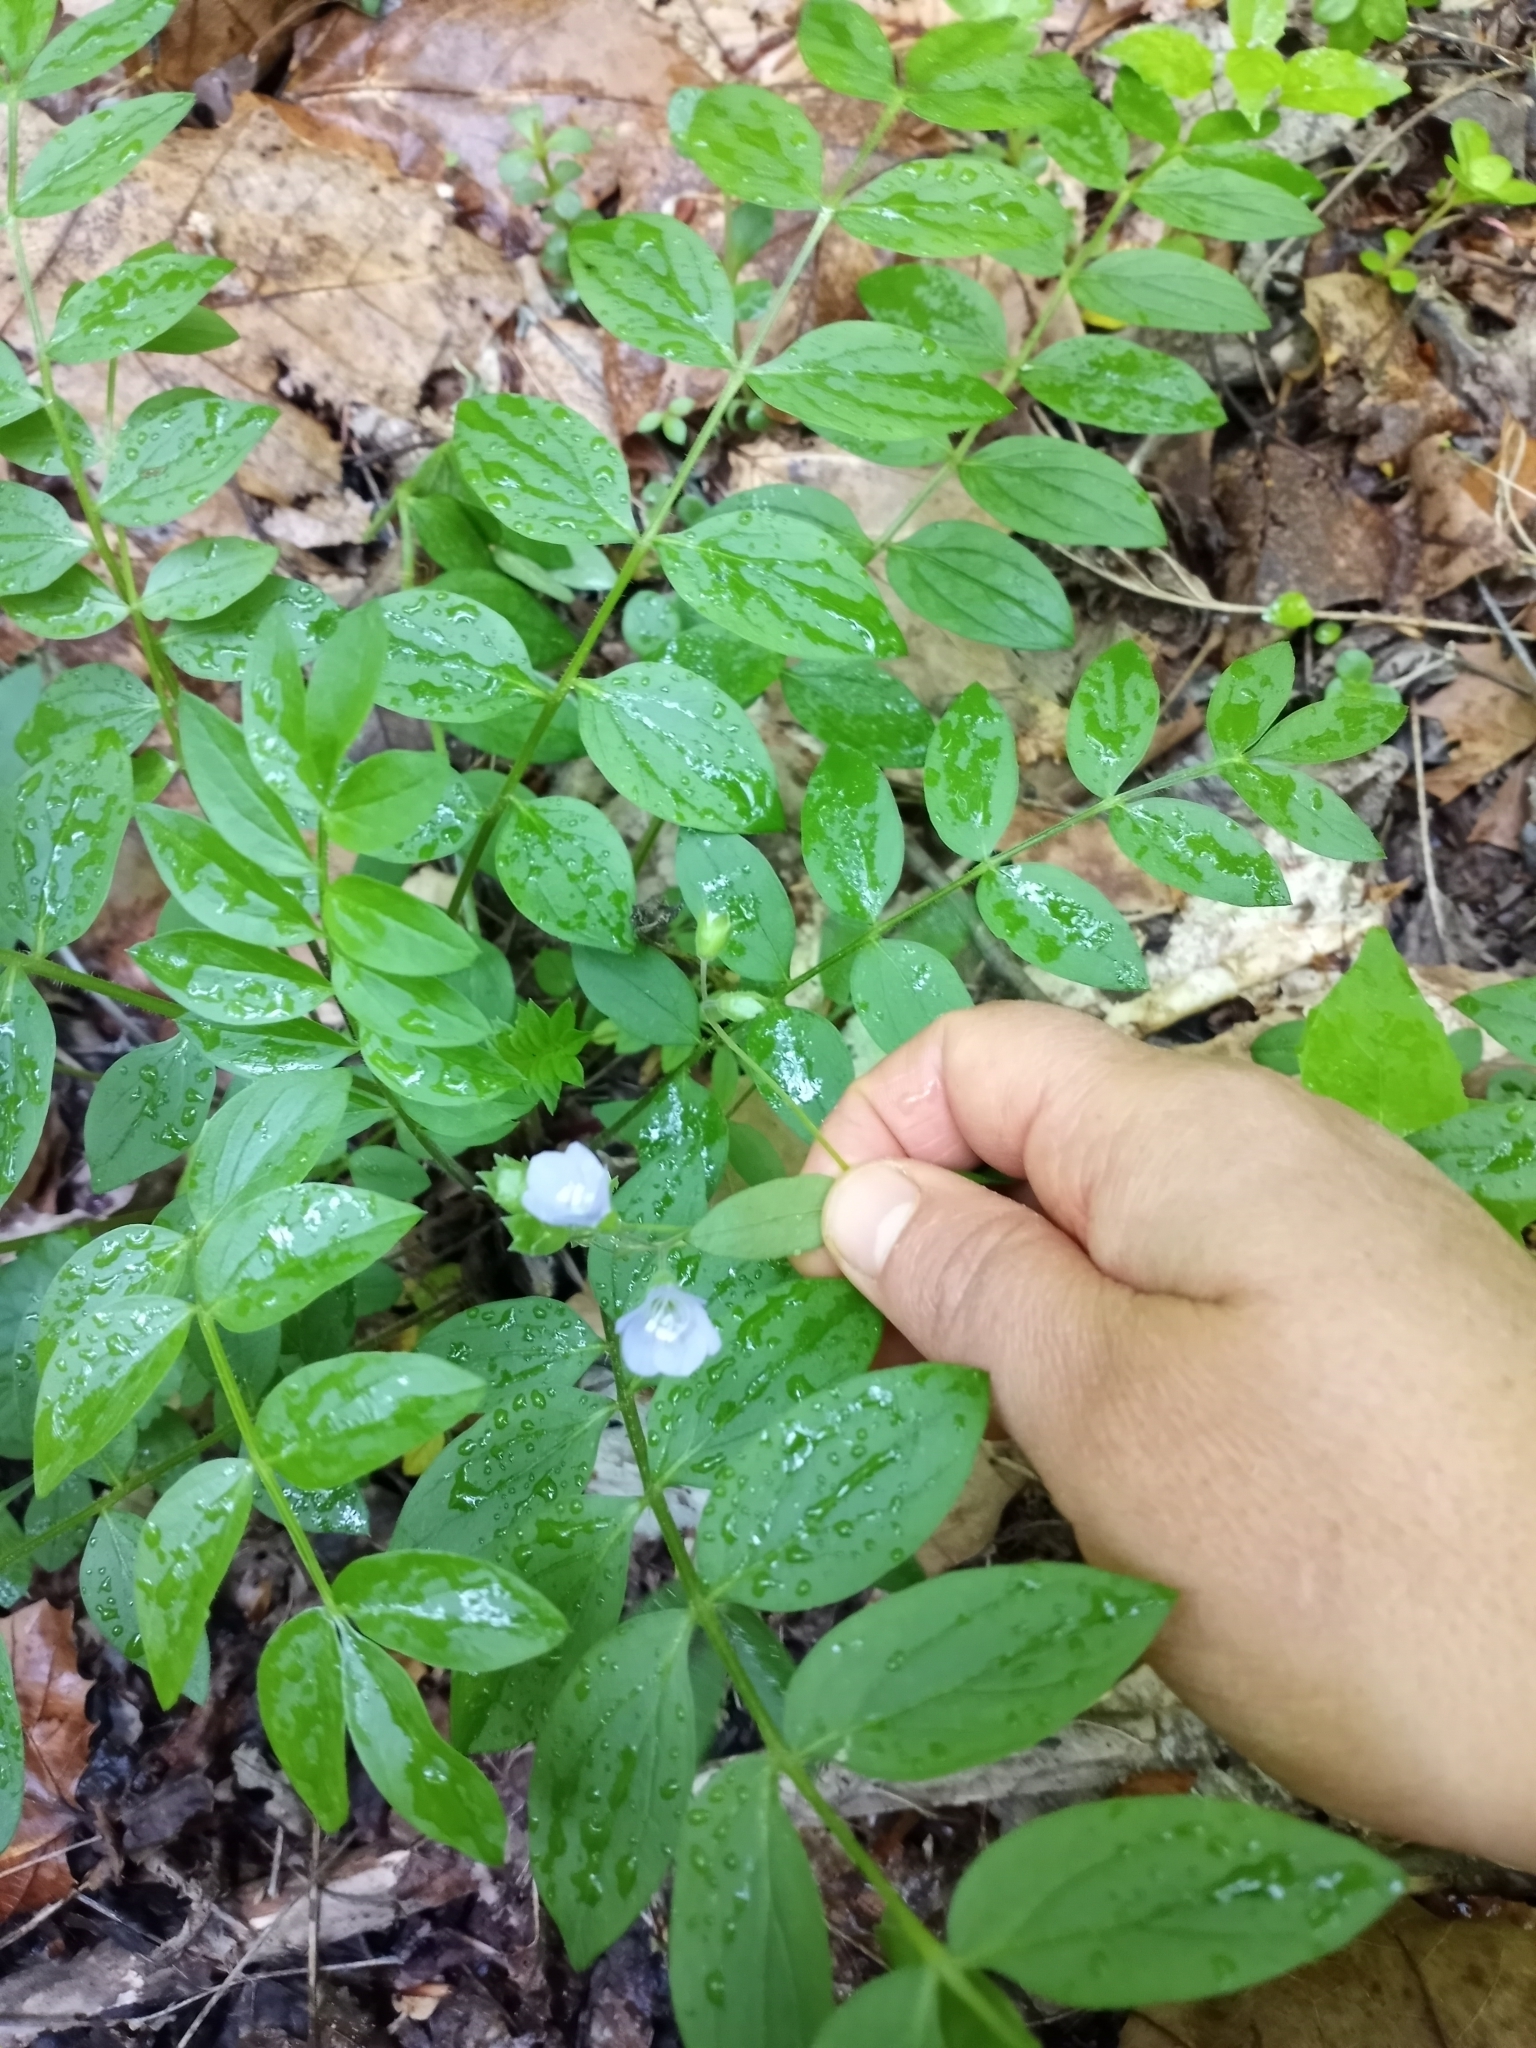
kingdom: Plantae
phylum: Tracheophyta
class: Magnoliopsida
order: Ericales
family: Polemoniaceae
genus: Polemonium
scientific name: Polemonium reptans
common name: Creeping jacob's-ladder
